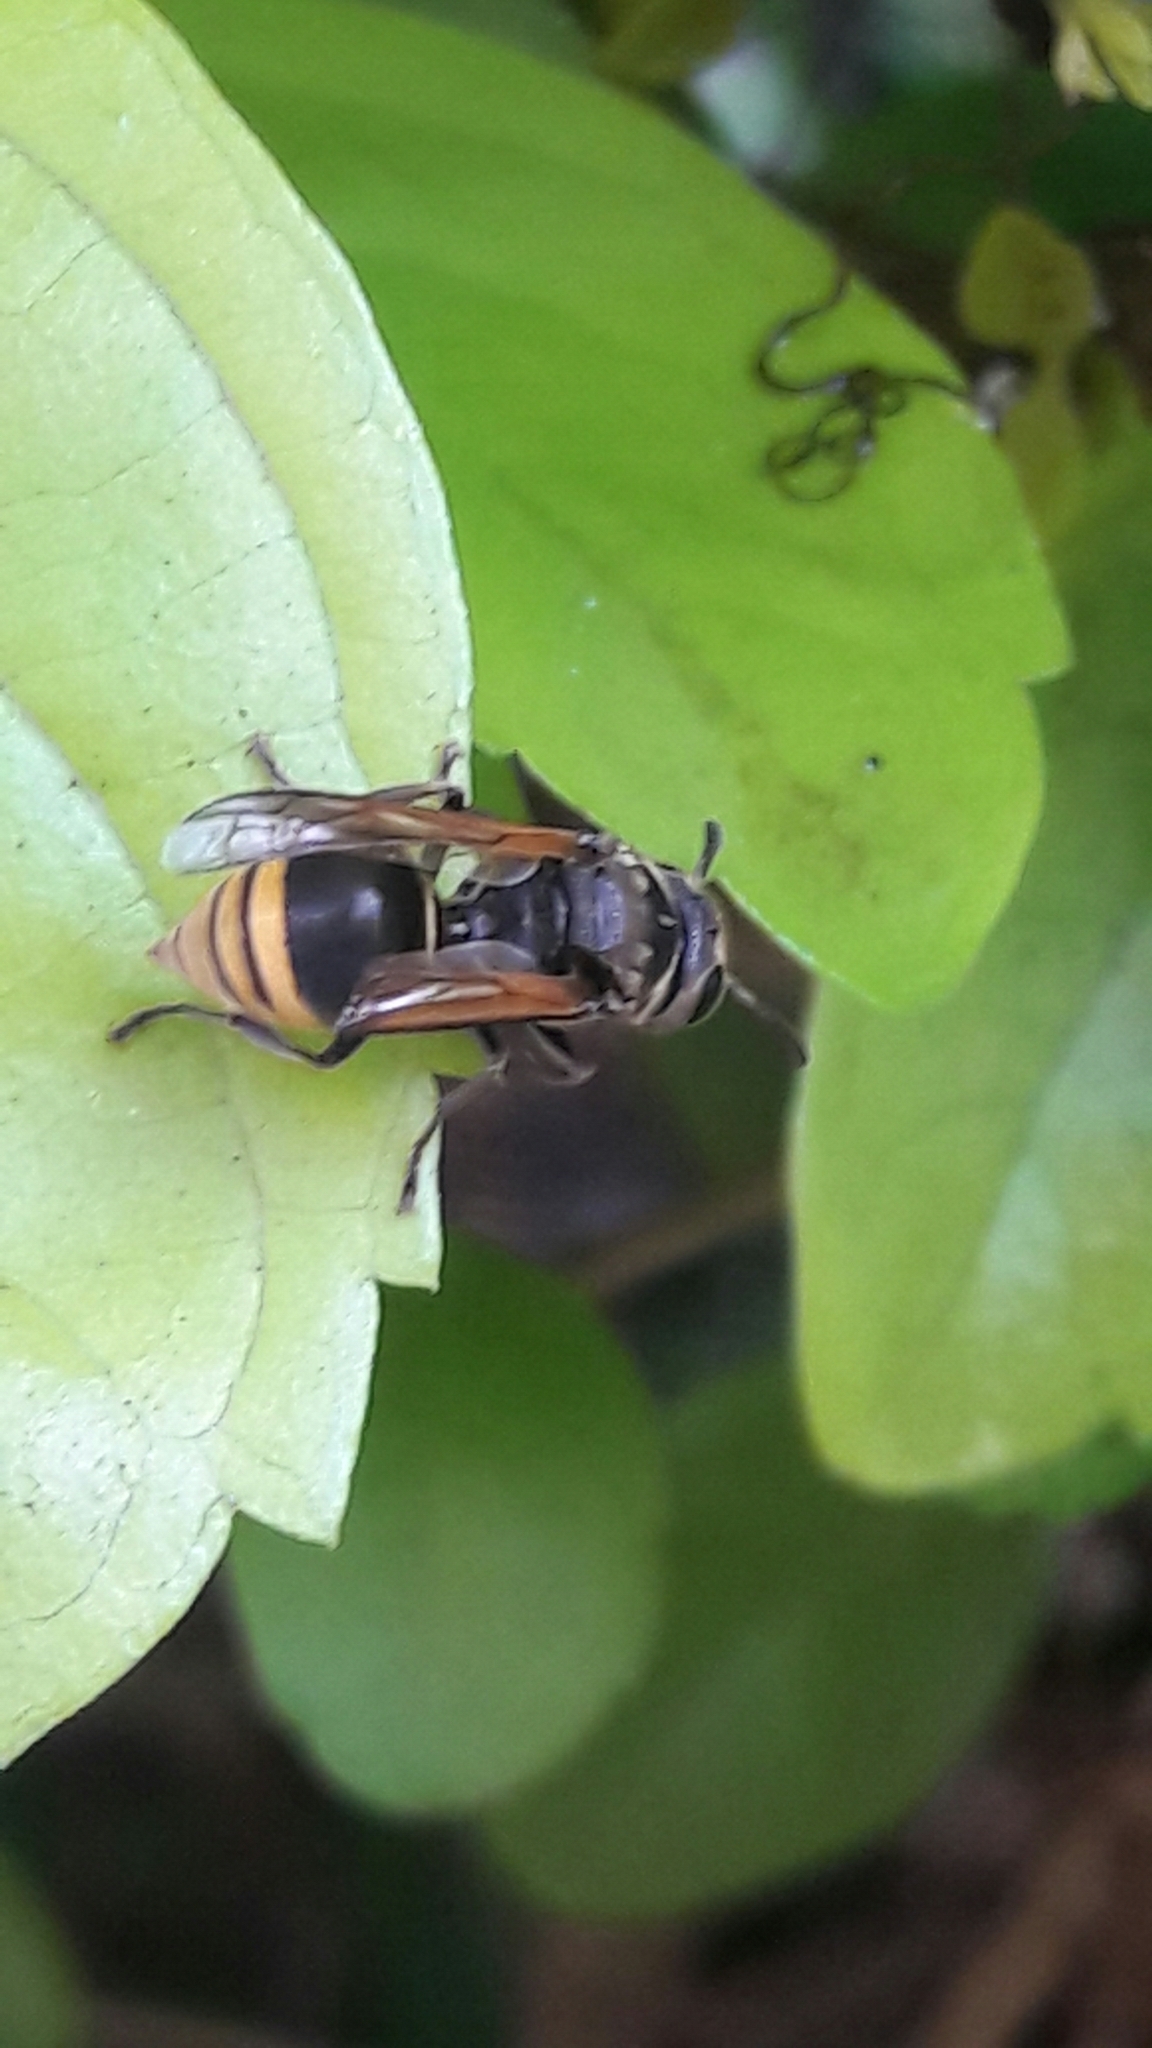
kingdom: Animalia
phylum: Arthropoda
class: Insecta
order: Hymenoptera
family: Vespidae
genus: Brachygastra
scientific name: Brachygastra lecheguana
